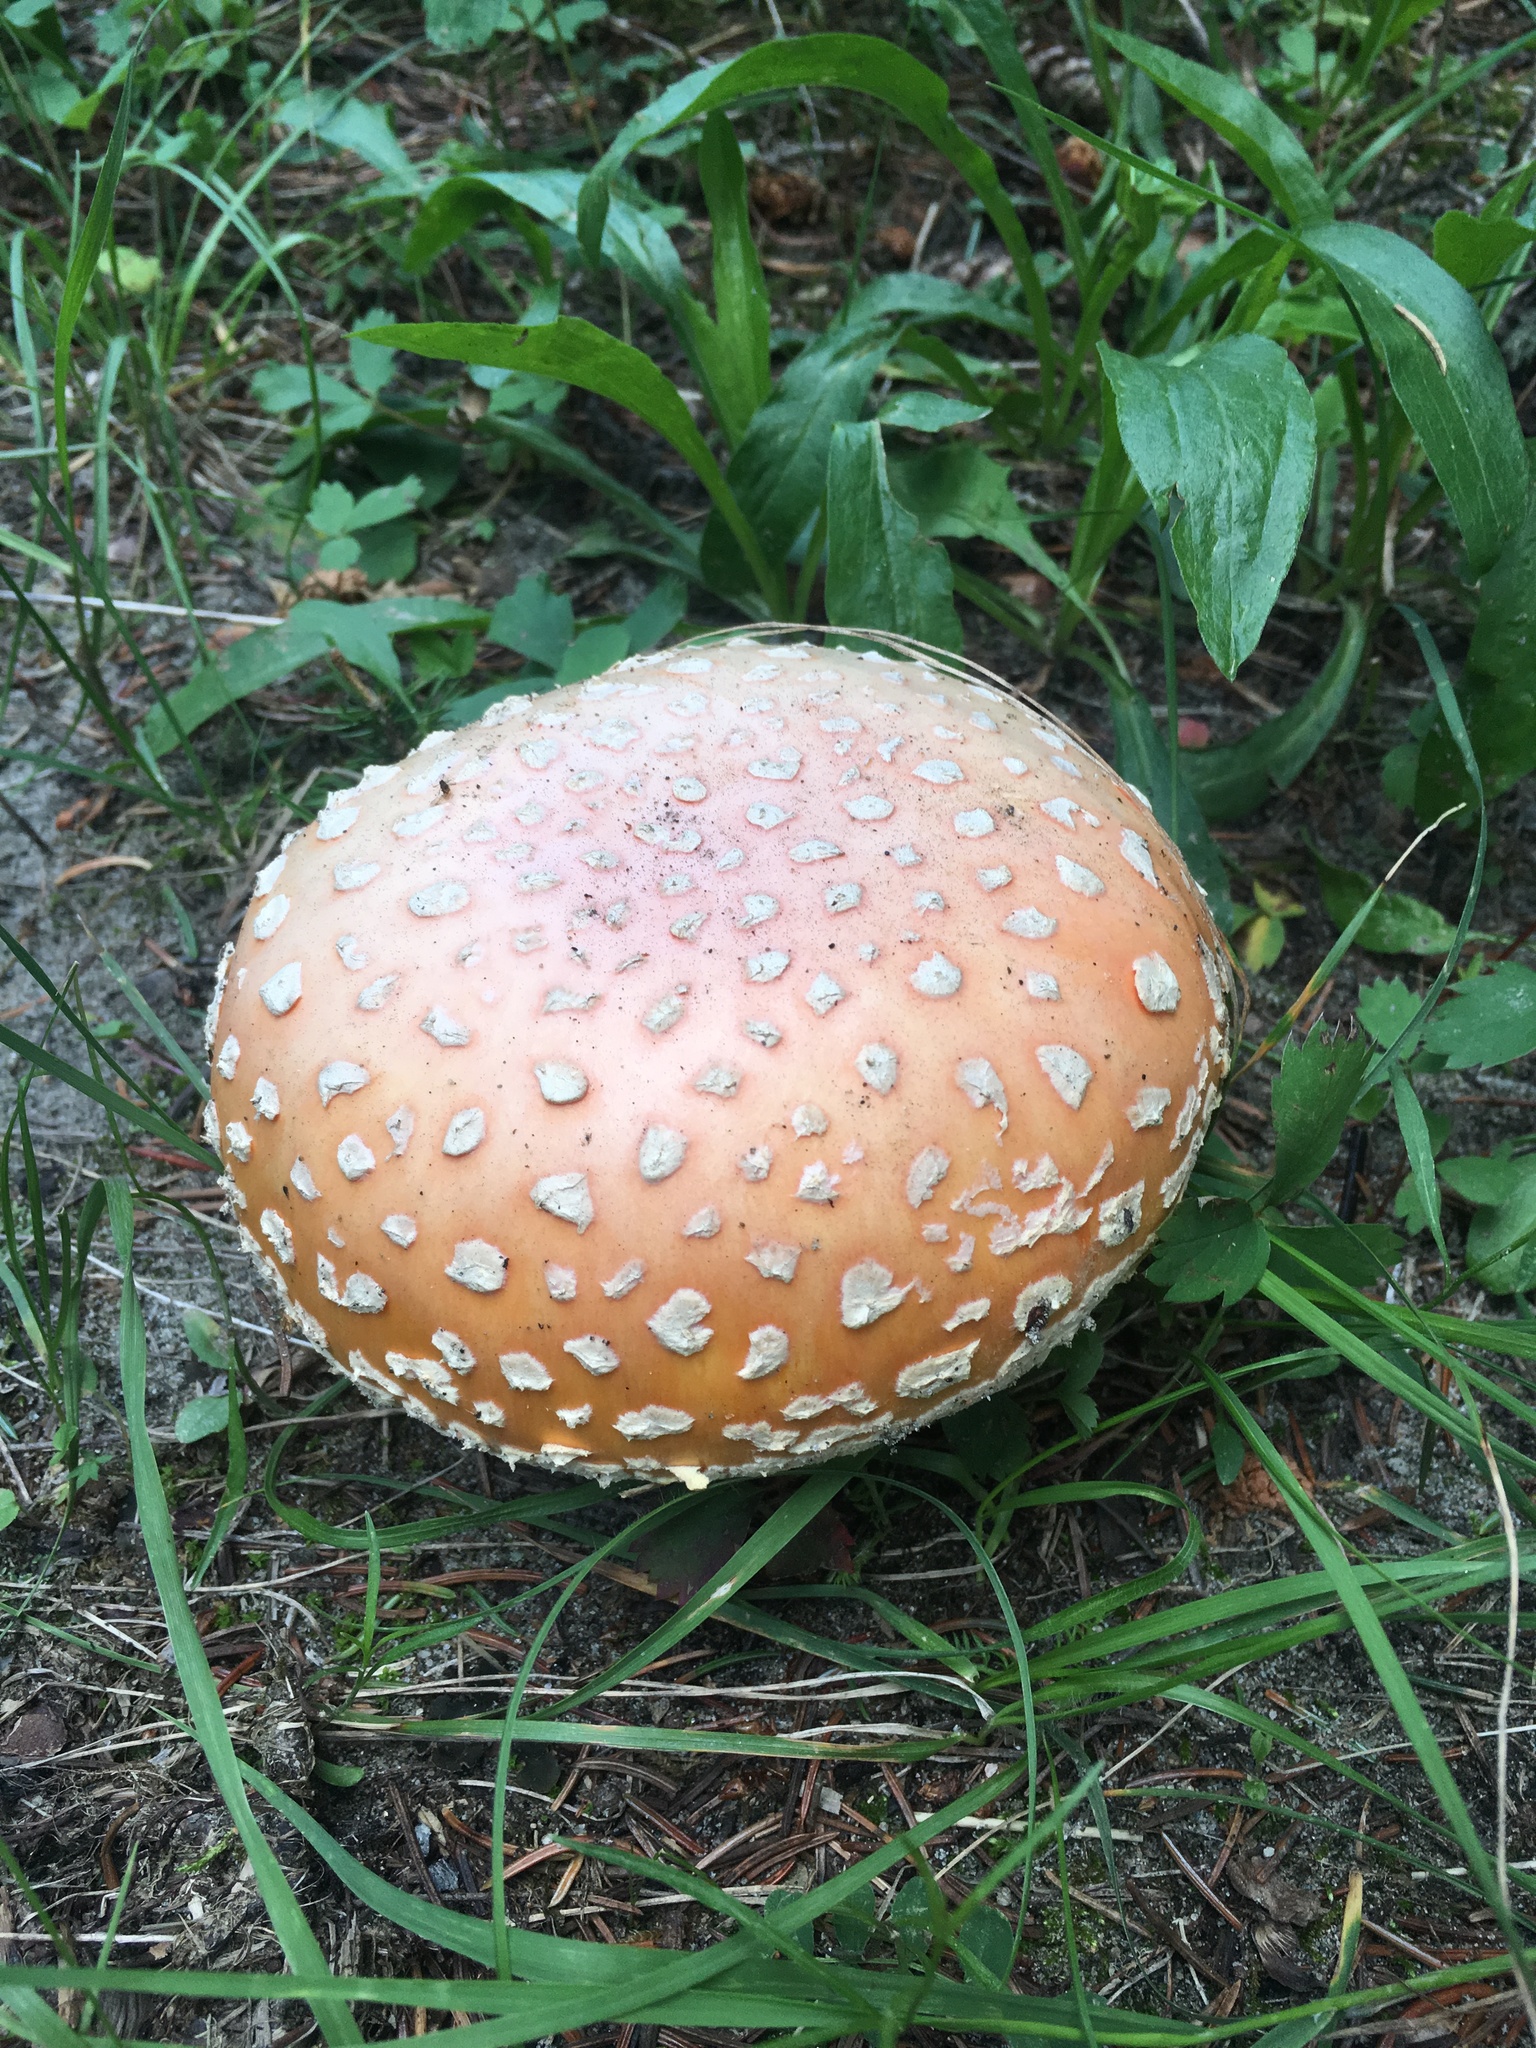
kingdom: Fungi
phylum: Basidiomycota
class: Agaricomycetes
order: Agaricales
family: Amanitaceae
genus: Amanita
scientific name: Amanita muscaria
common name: Fly agaric
